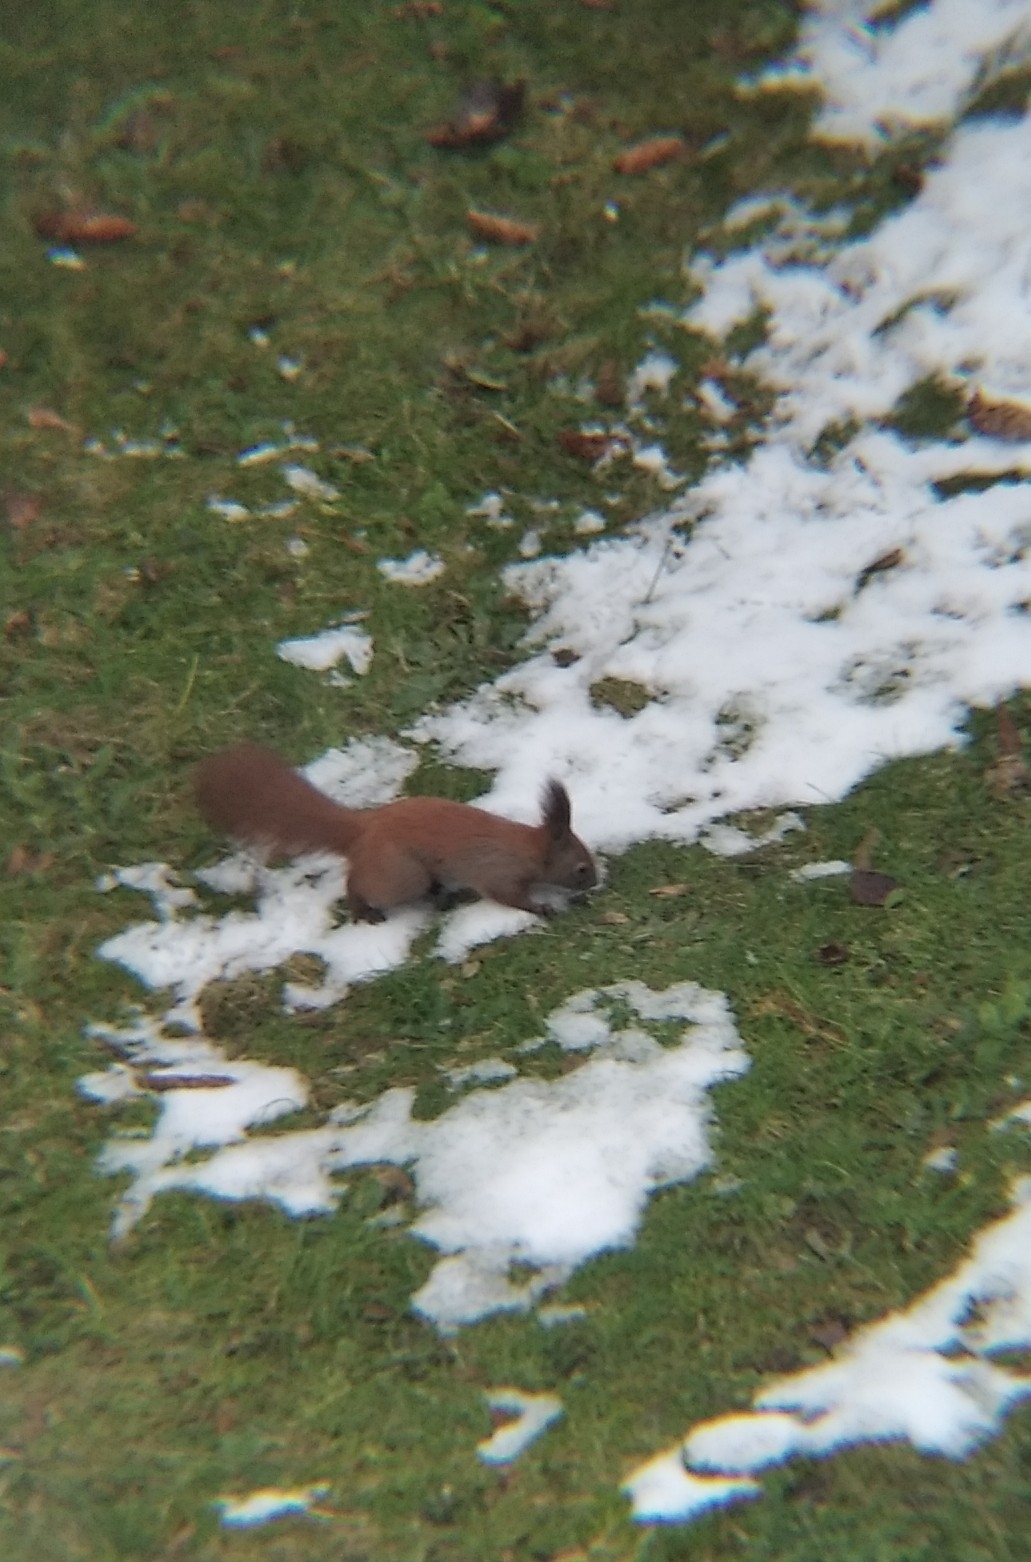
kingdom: Animalia
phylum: Chordata
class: Mammalia
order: Rodentia
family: Sciuridae
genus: Sciurus
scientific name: Sciurus vulgaris
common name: Eurasian red squirrel
